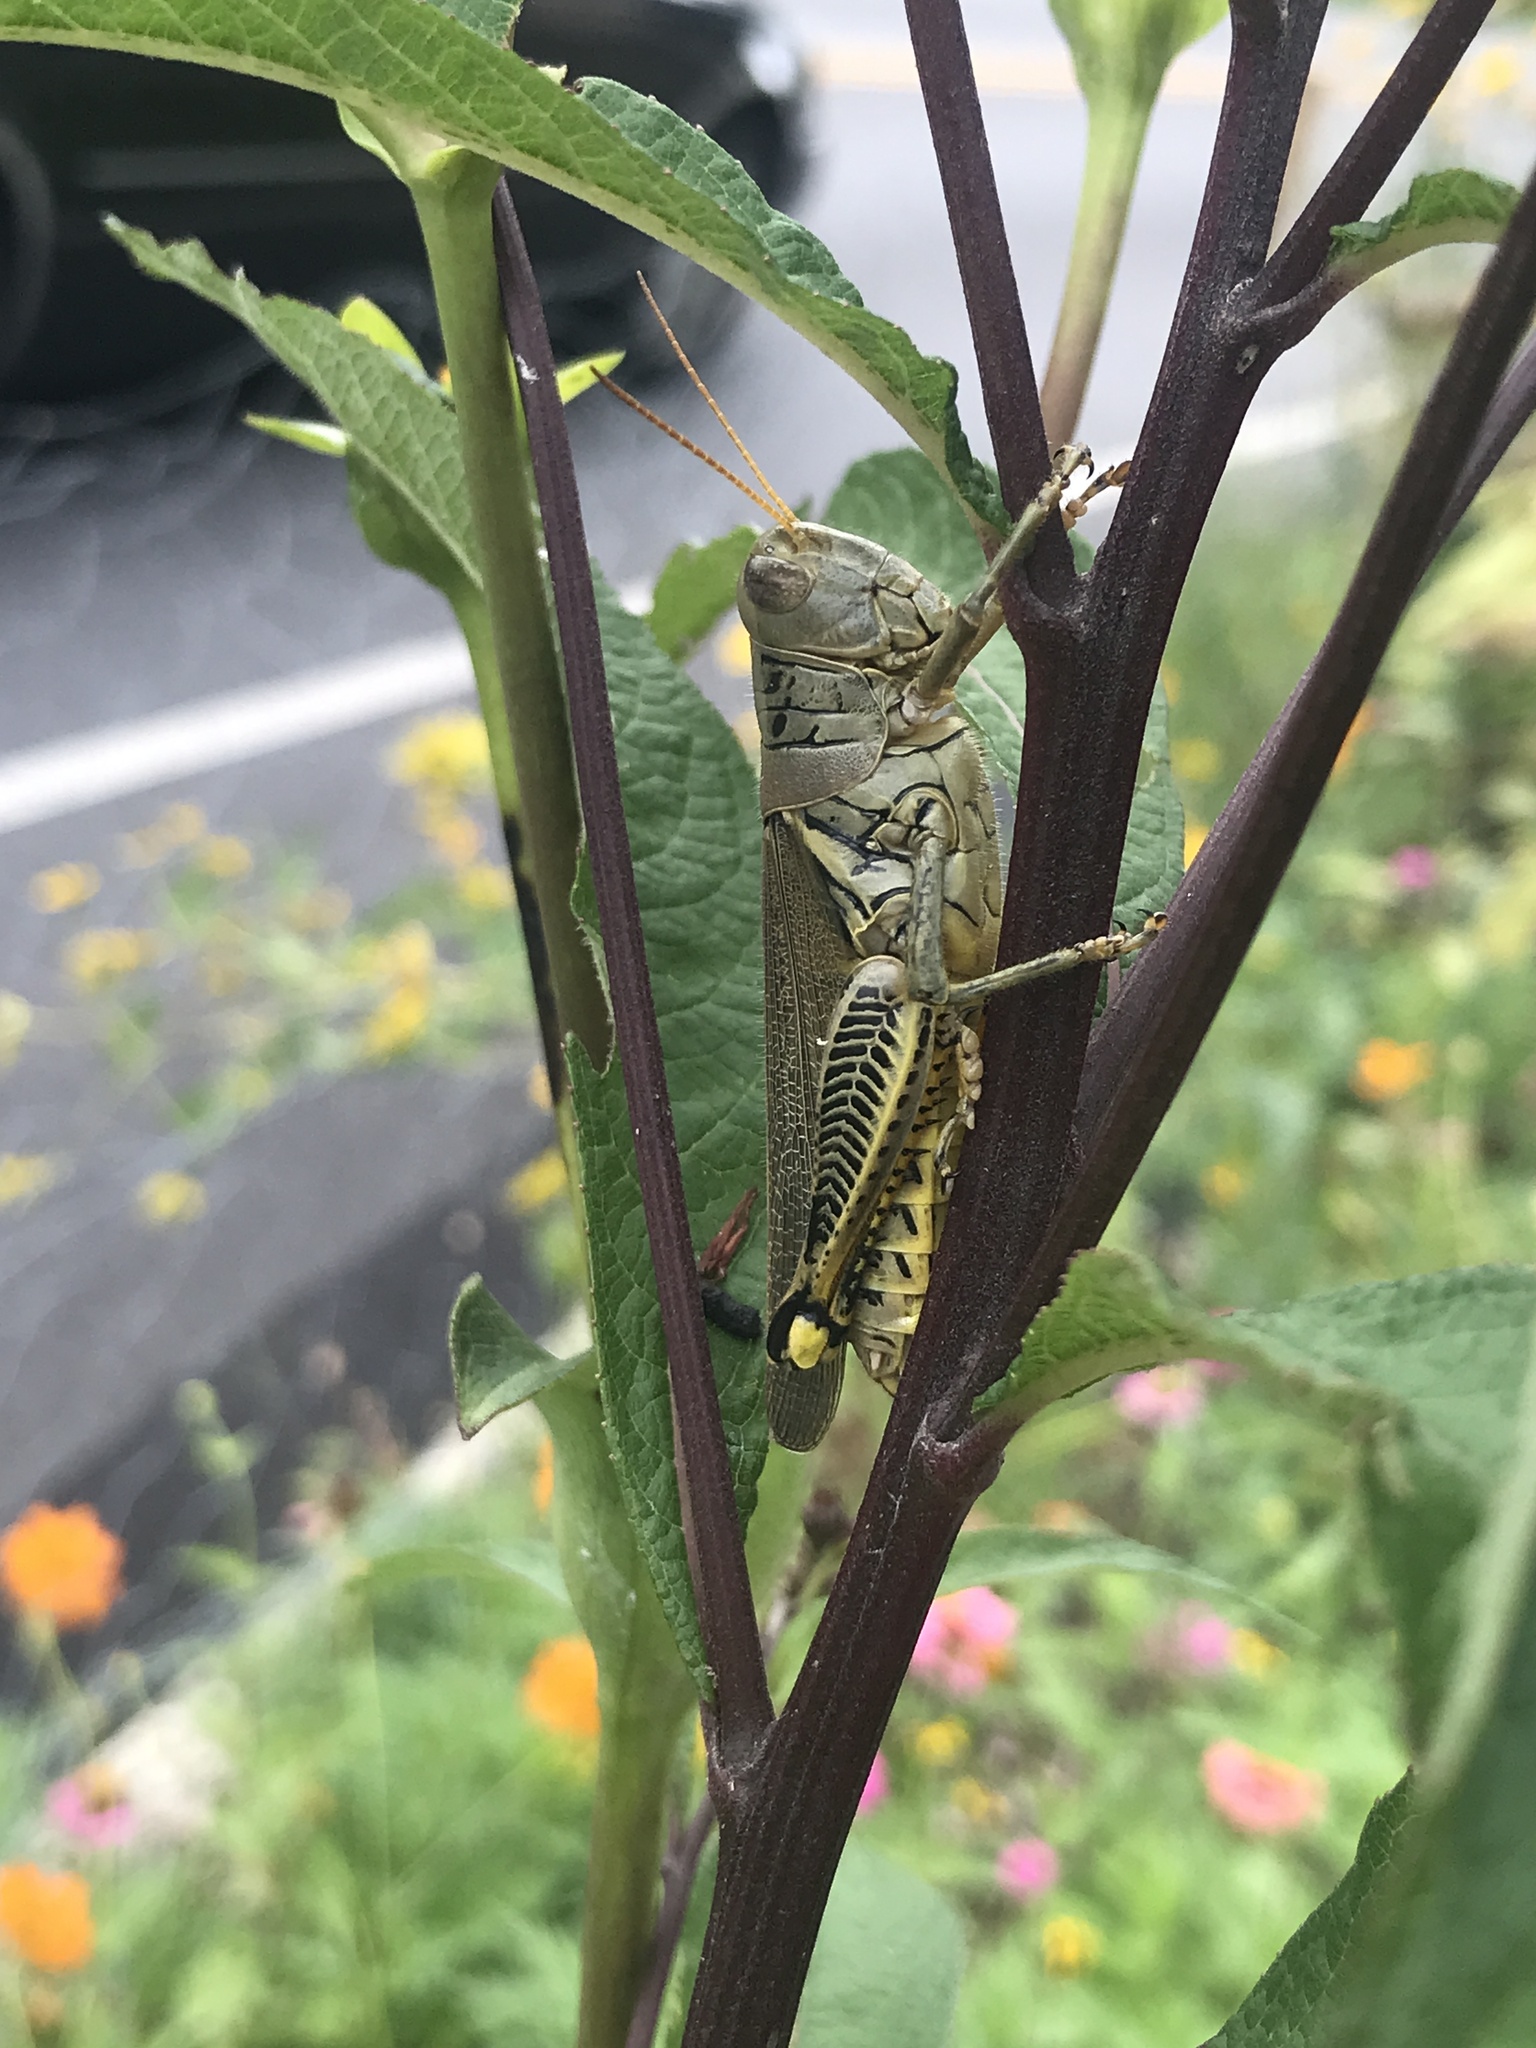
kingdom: Animalia
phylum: Arthropoda
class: Insecta
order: Orthoptera
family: Acrididae
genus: Melanoplus
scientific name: Melanoplus differentialis
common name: Differential grasshopper
